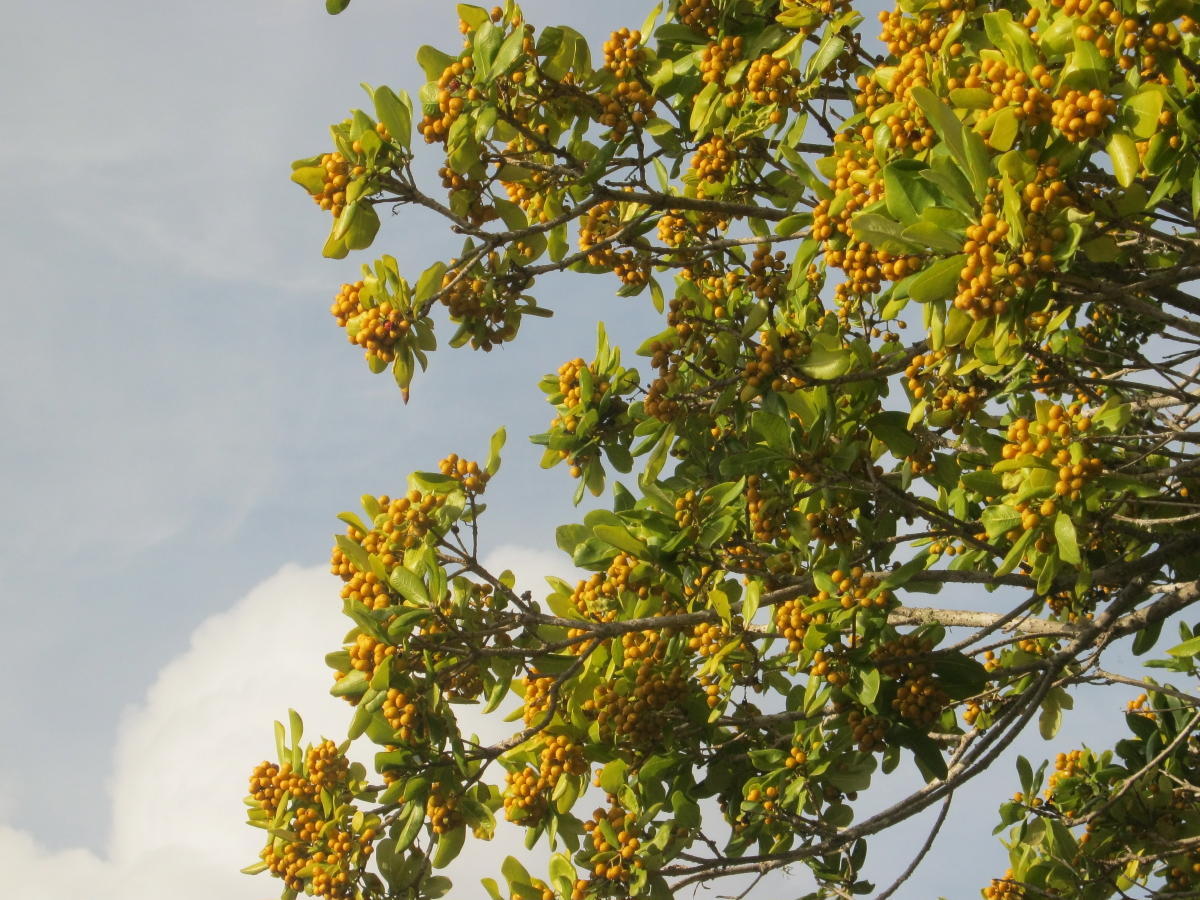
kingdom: Plantae
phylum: Tracheophyta
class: Magnoliopsida
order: Apiales
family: Pittosporaceae
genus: Pittosporum
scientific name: Pittosporum viridiflorum
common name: Cape cheesewood
